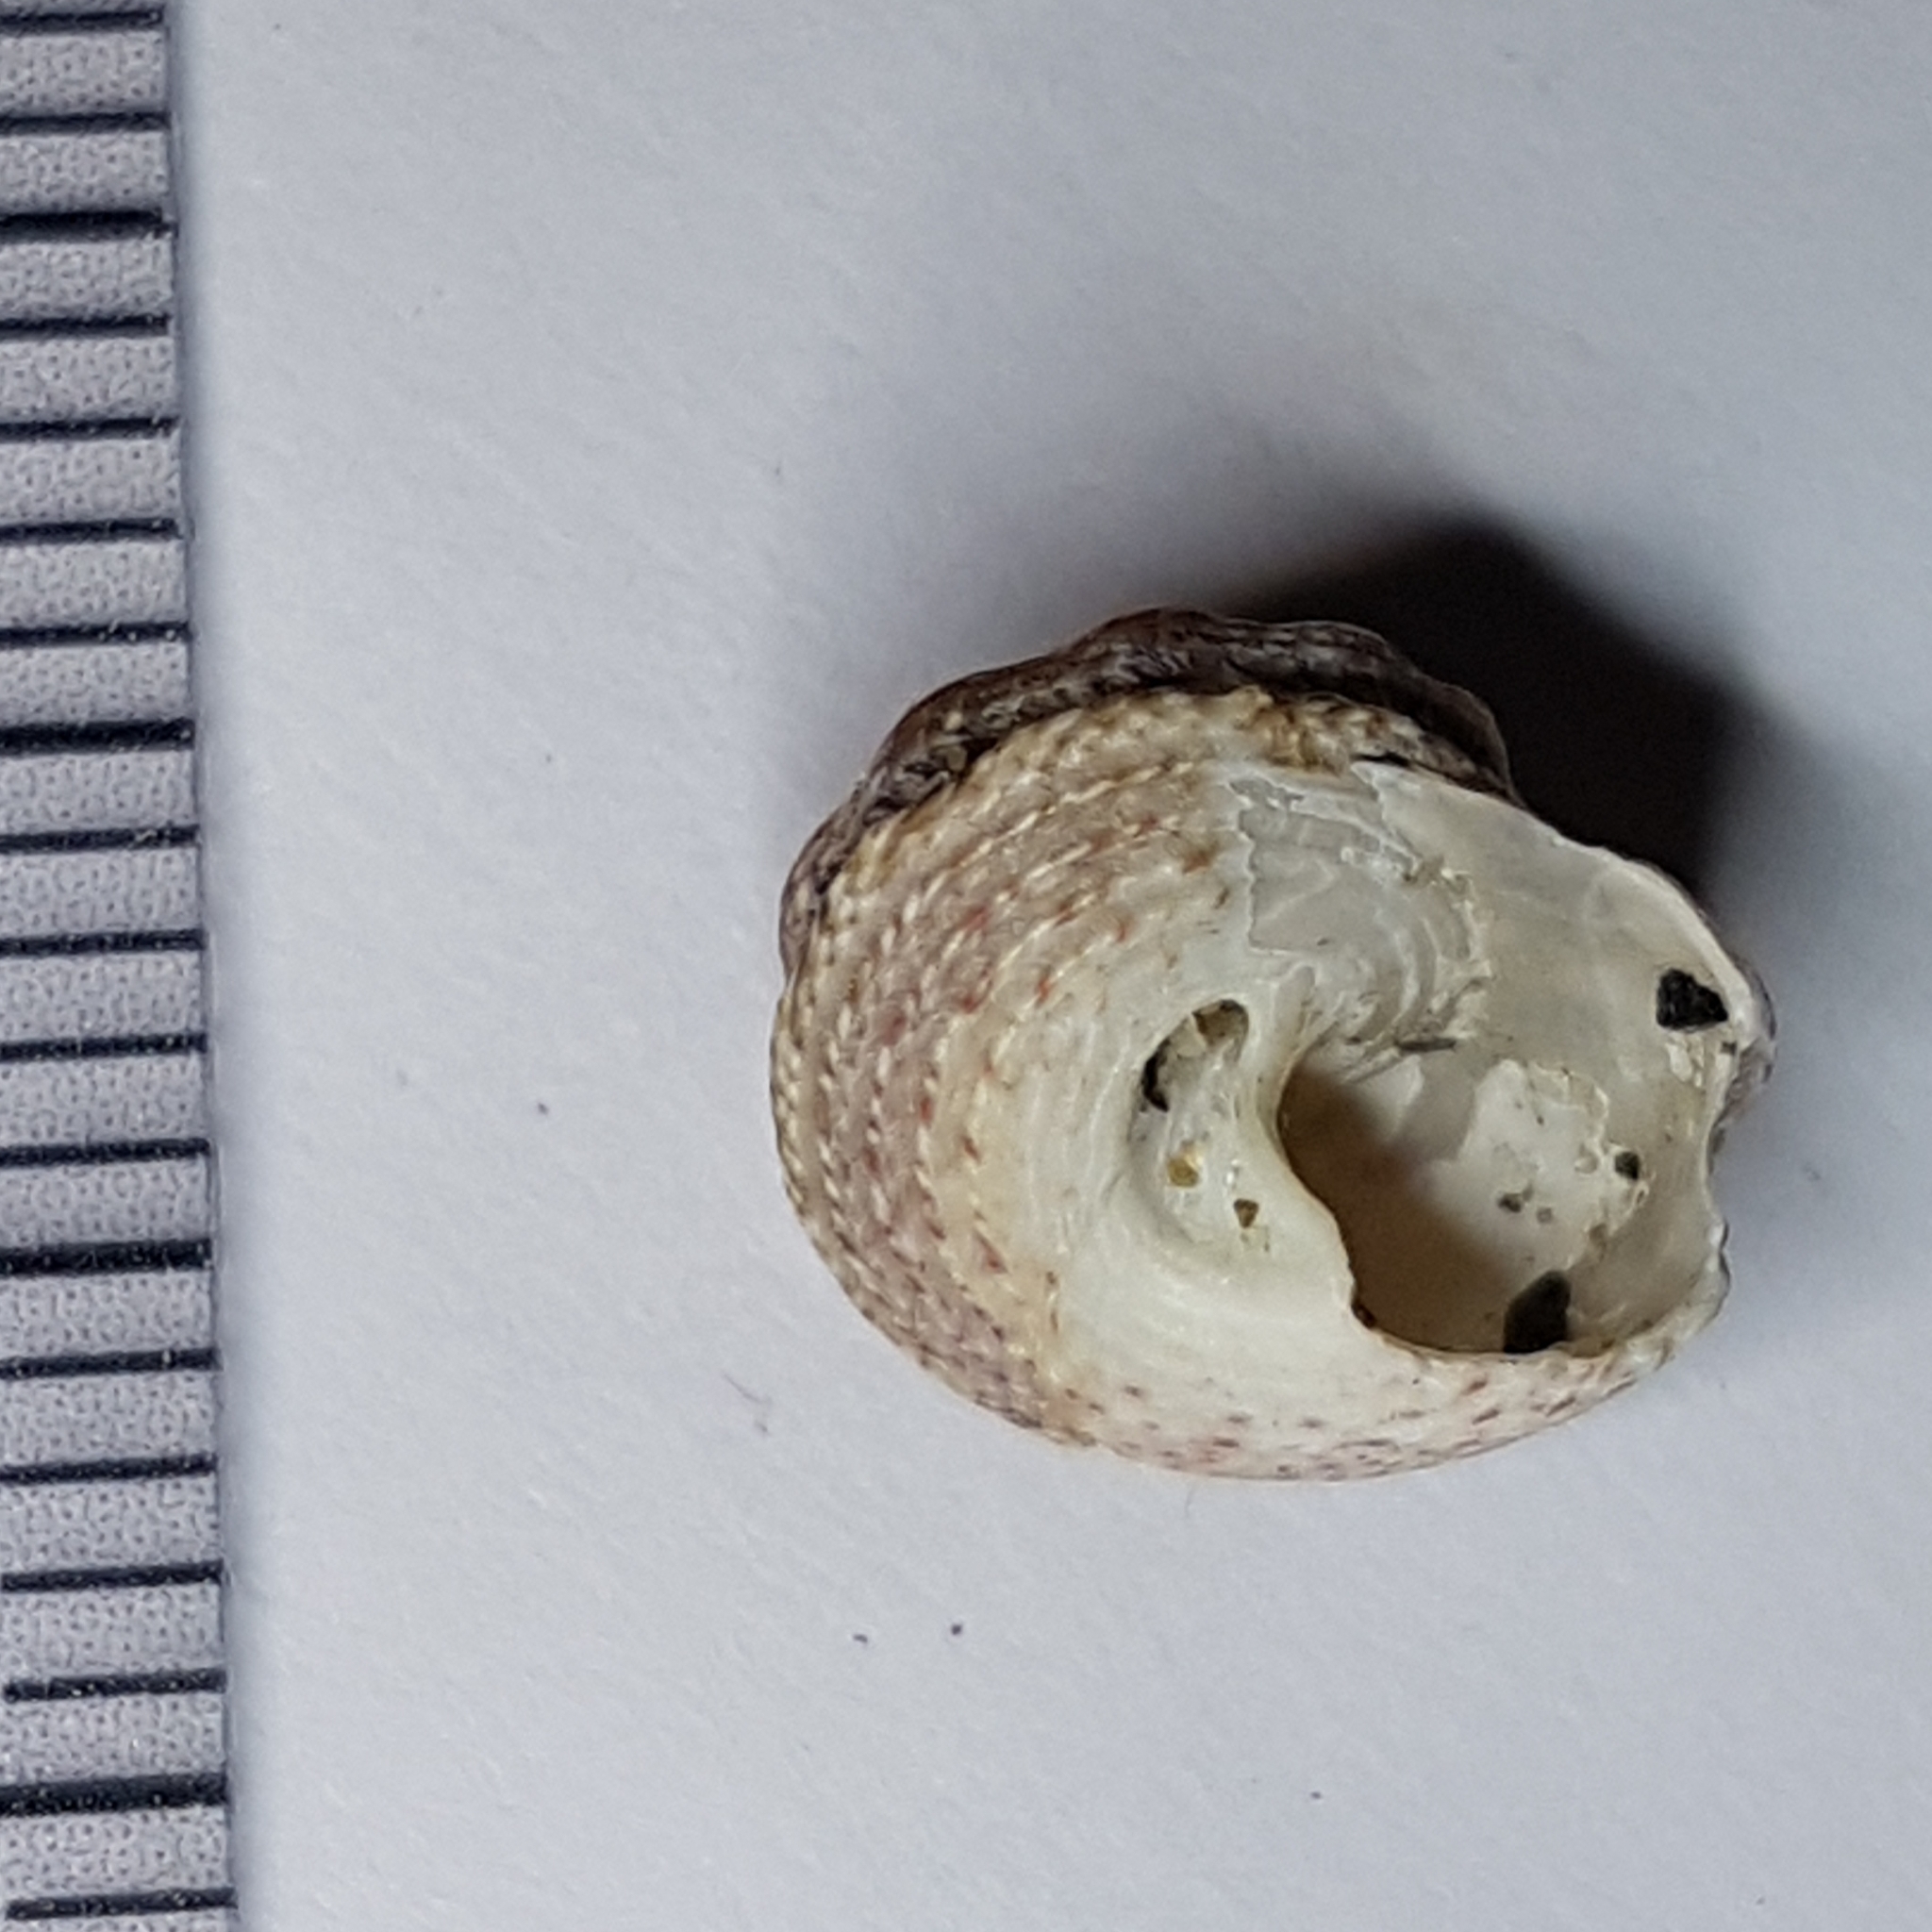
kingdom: Animalia
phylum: Mollusca
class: Gastropoda
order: Trochida
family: Trochidae
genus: Gibbula
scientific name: Gibbula fanulum
